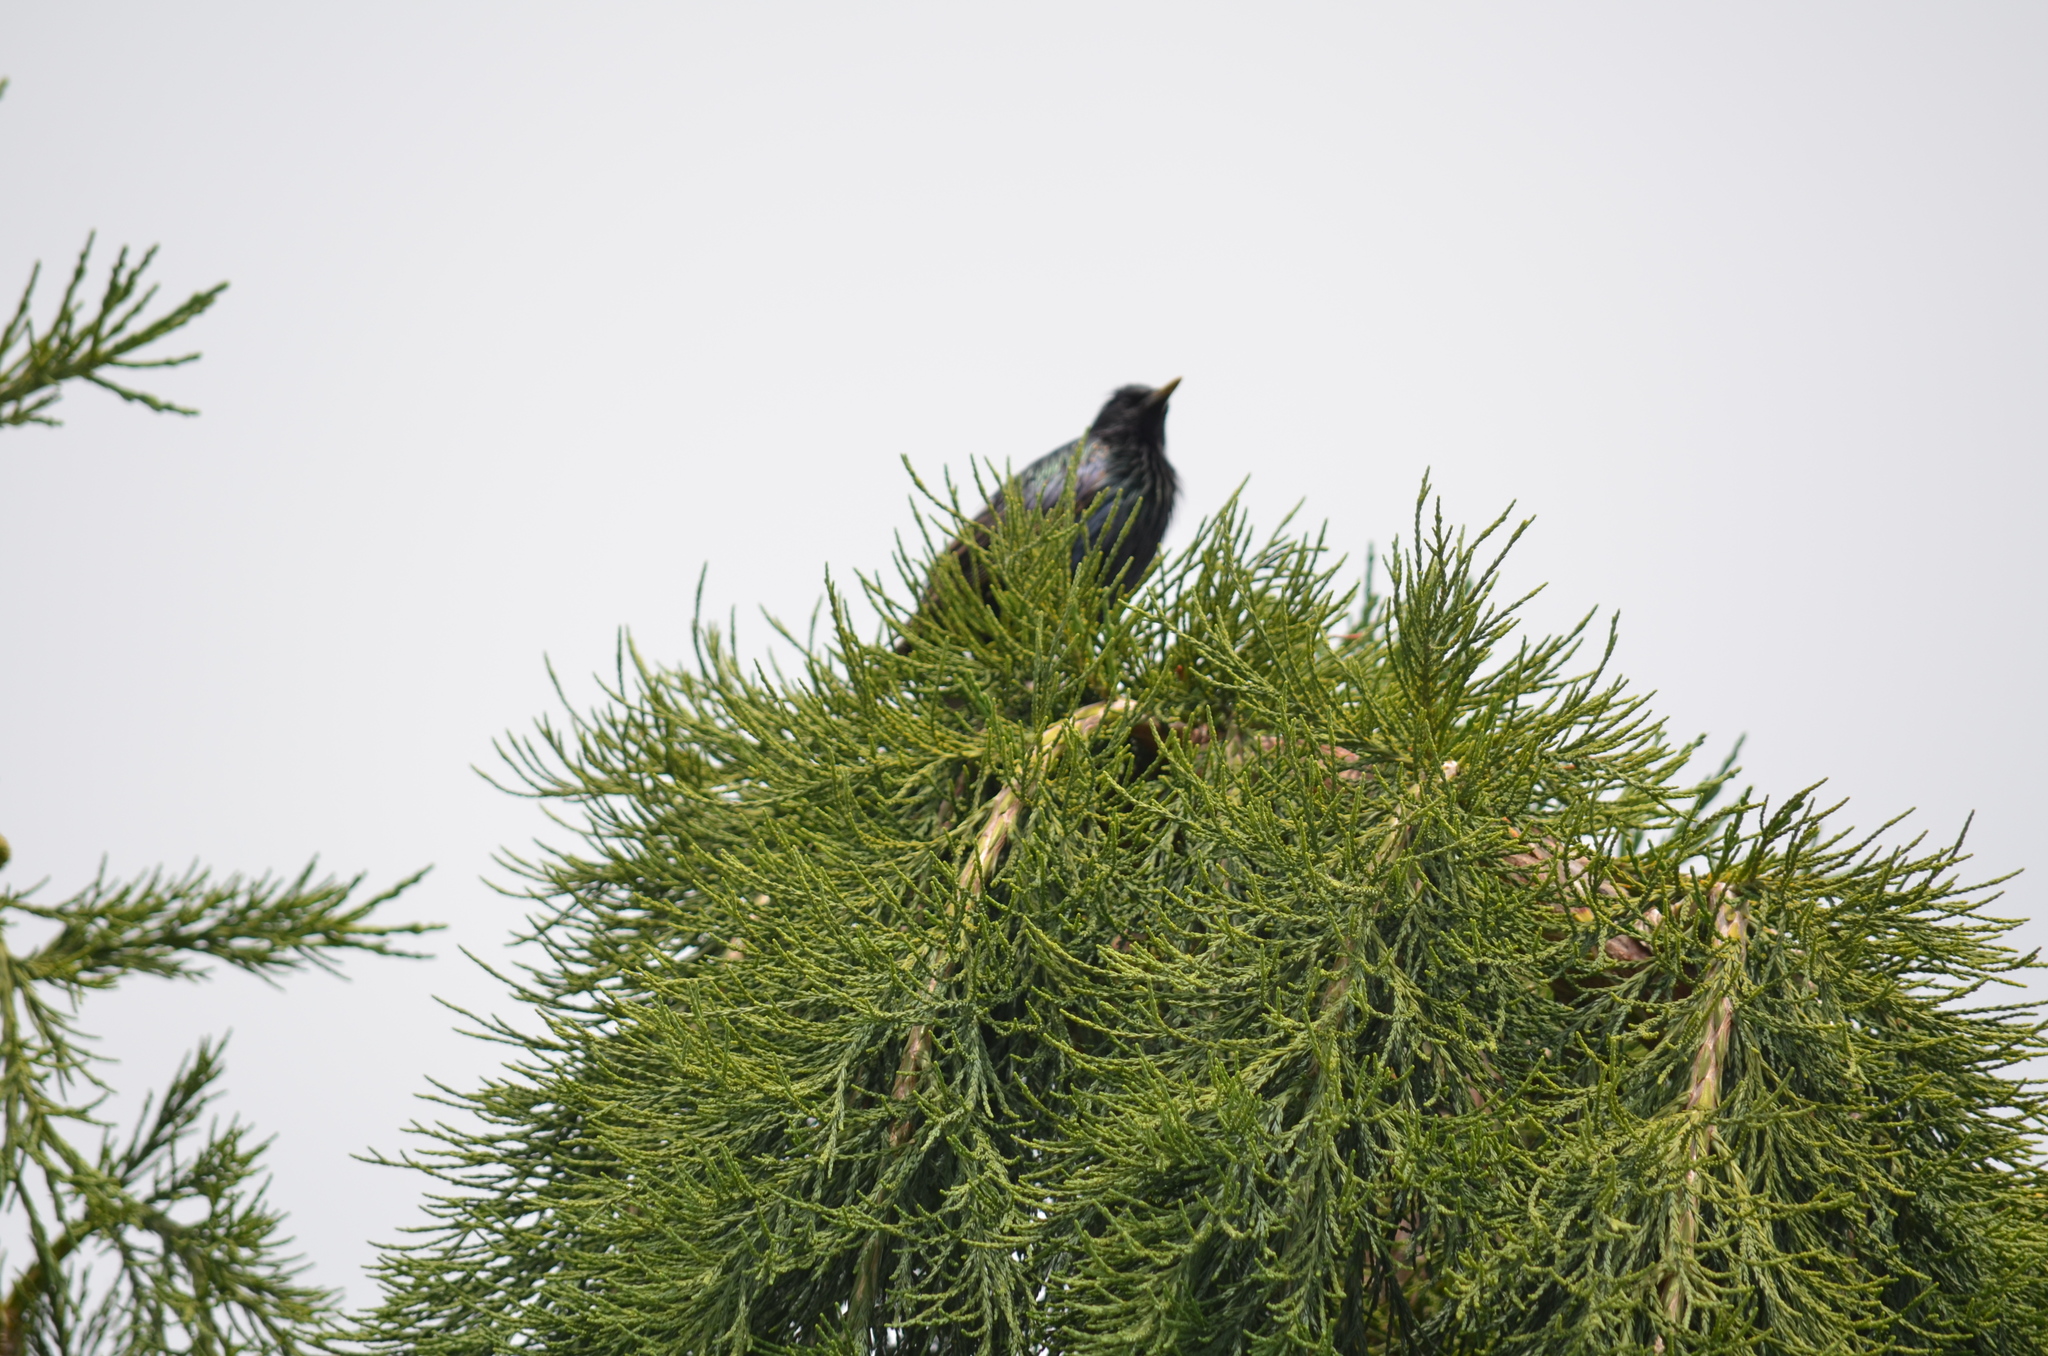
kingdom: Animalia
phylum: Chordata
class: Aves
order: Passeriformes
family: Sturnidae
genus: Sturnus
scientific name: Sturnus vulgaris
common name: Common starling
